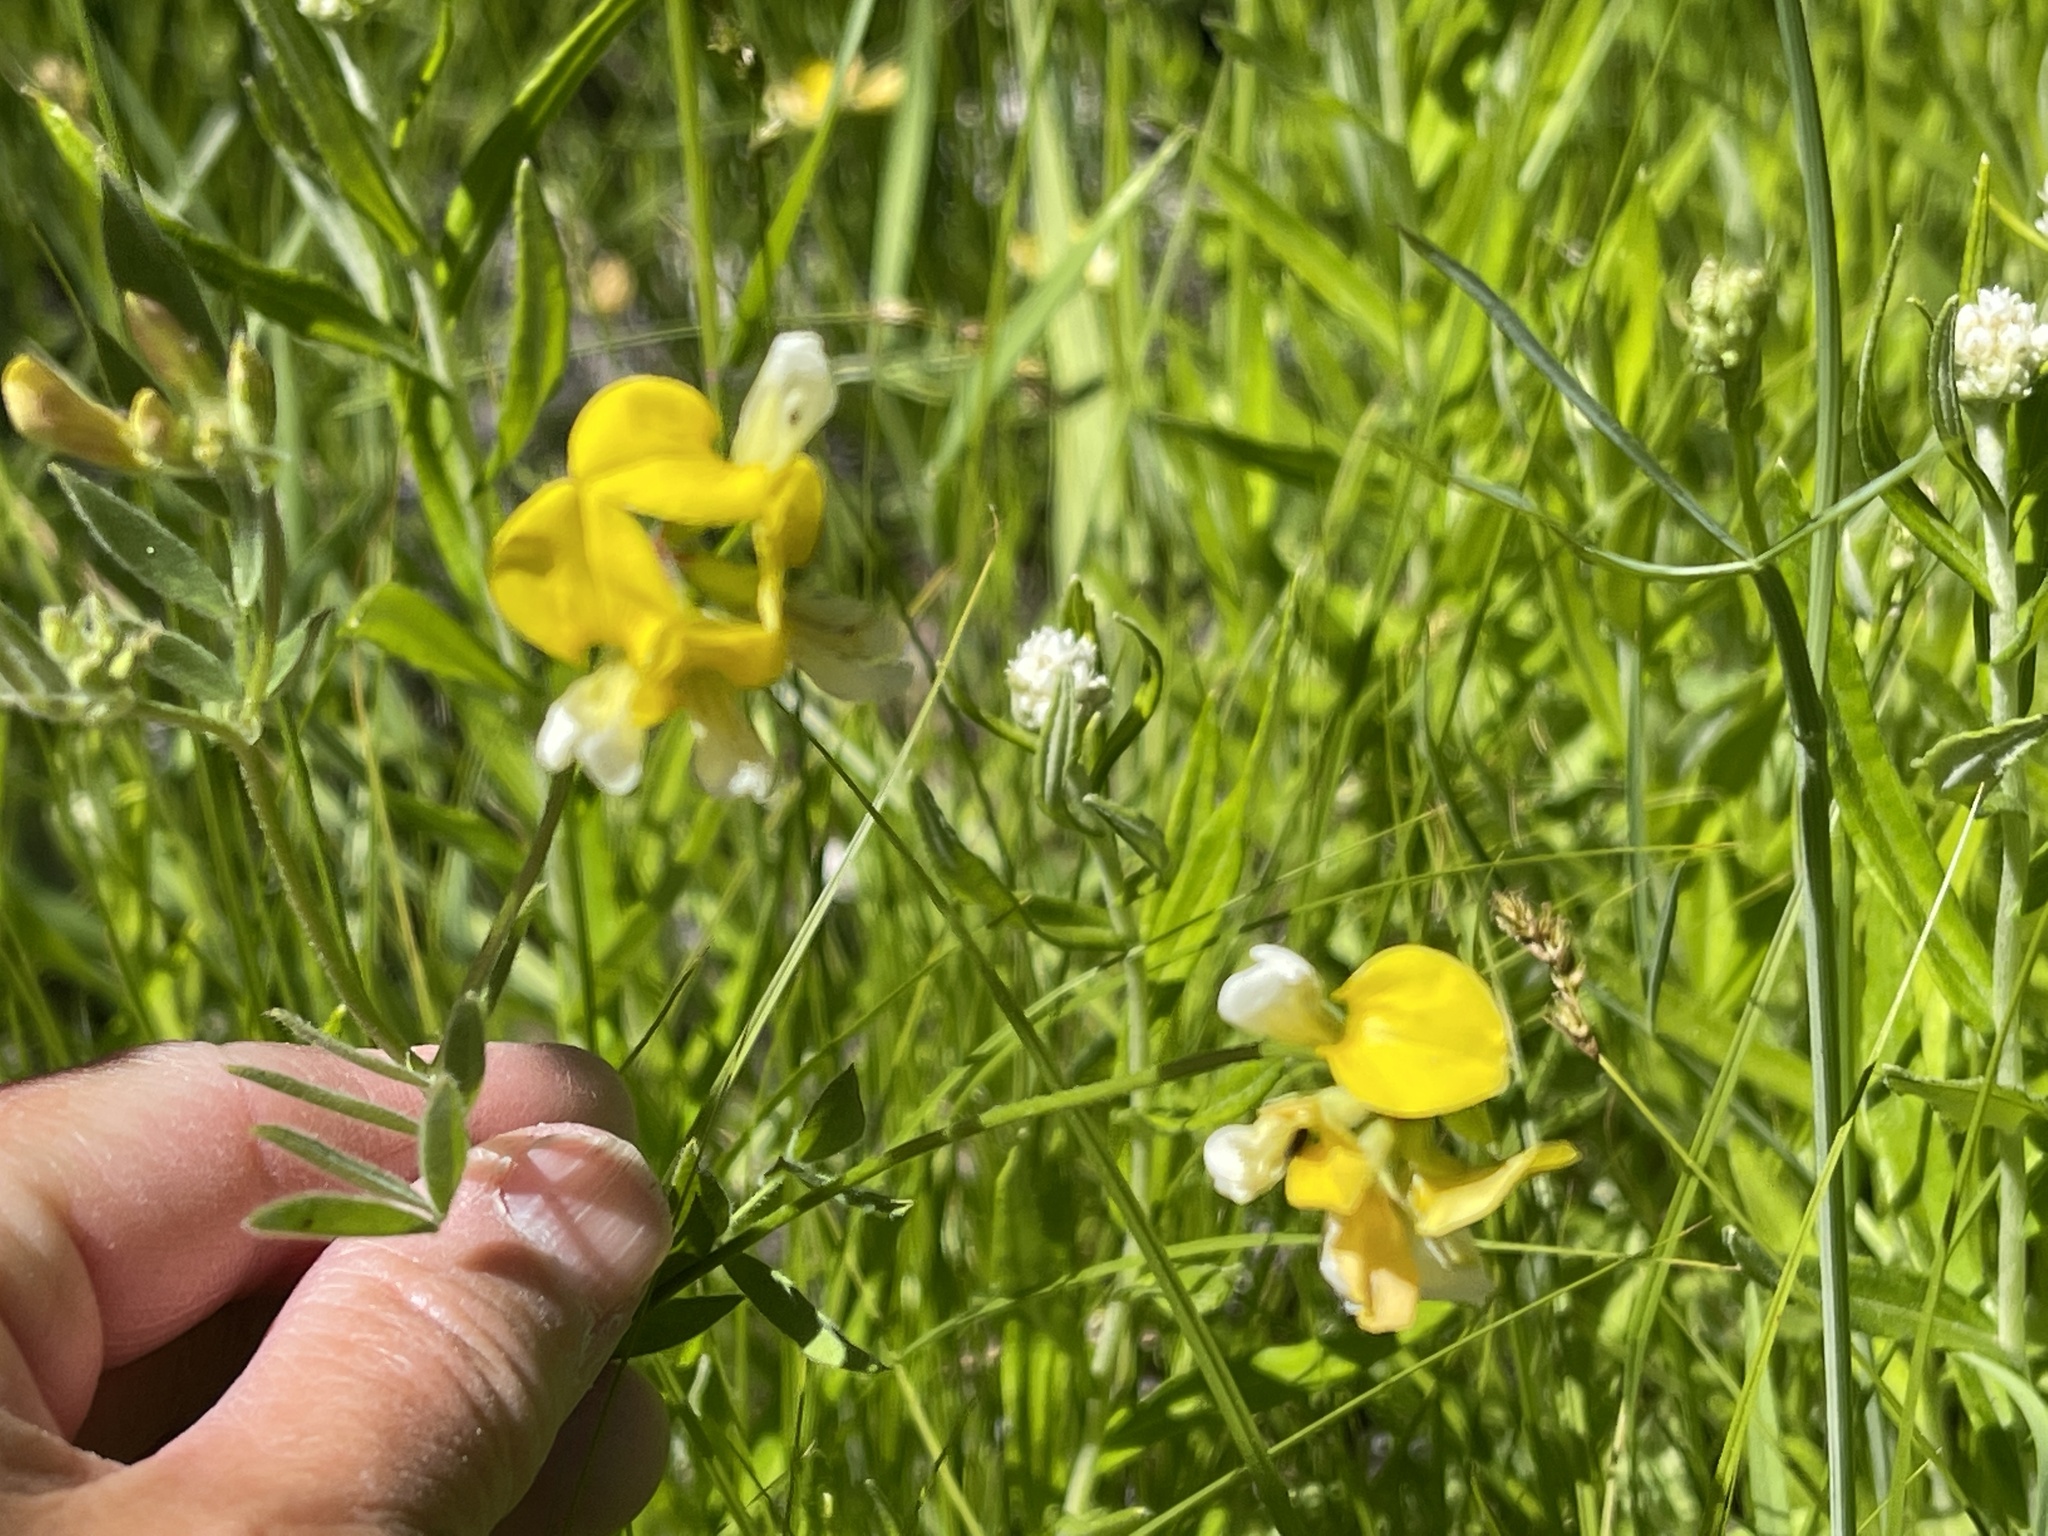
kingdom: Plantae
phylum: Tracheophyta
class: Magnoliopsida
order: Fabales
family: Fabaceae
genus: Hosackia
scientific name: Hosackia oblongifolia
